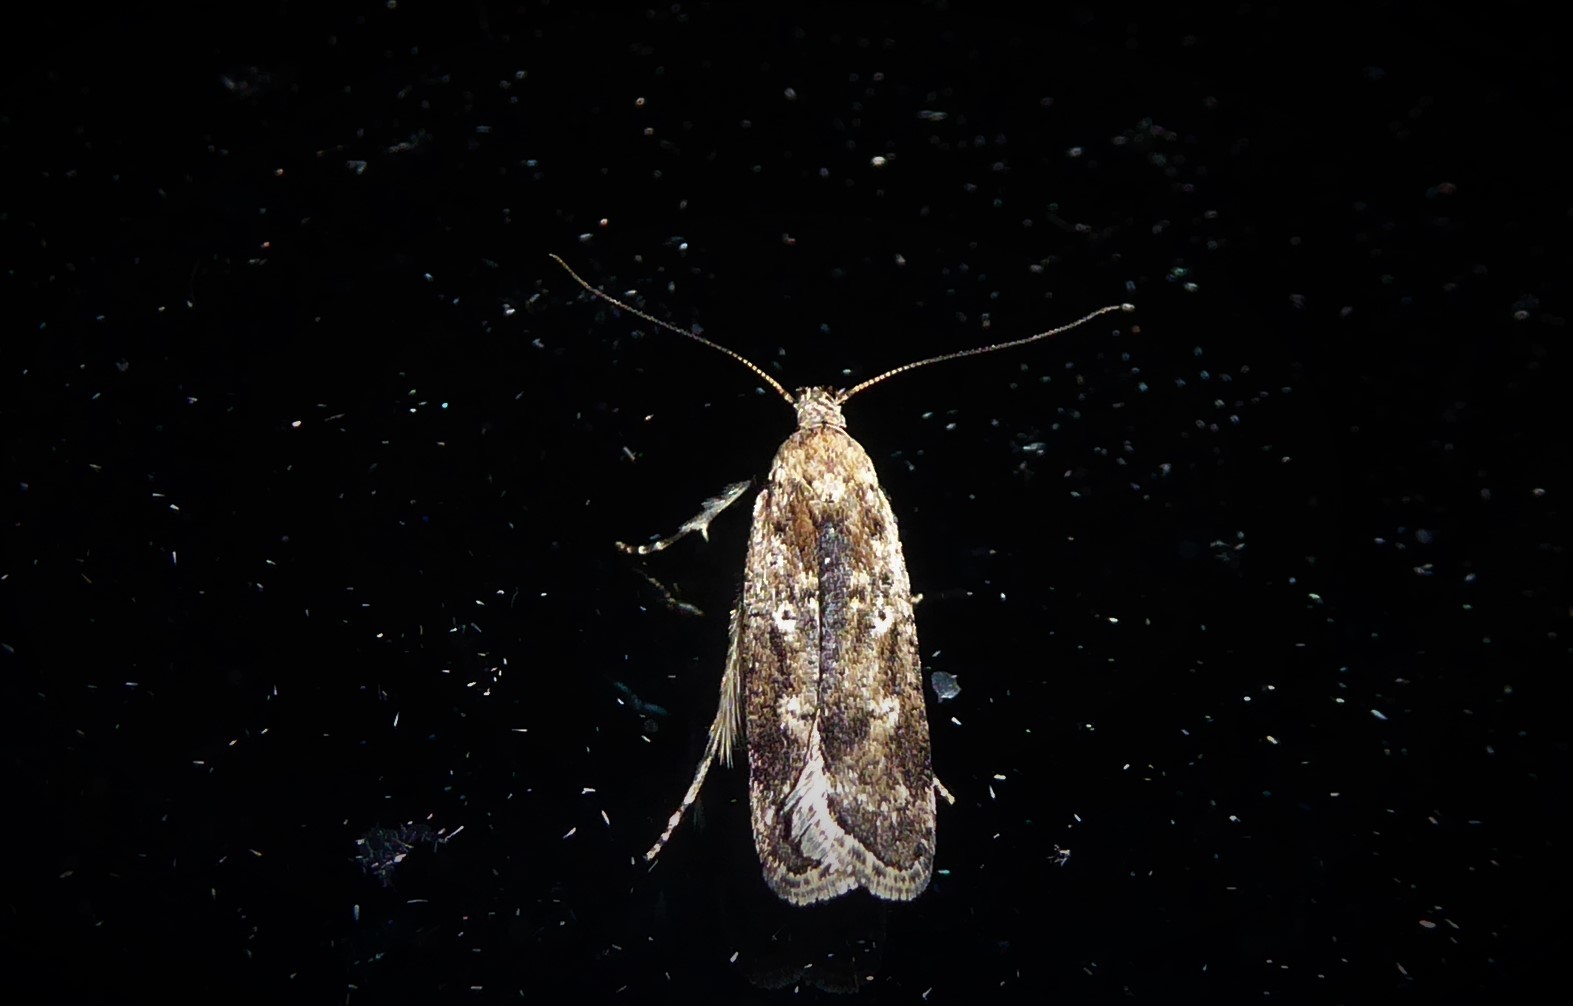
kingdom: Animalia
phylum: Arthropoda
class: Insecta
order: Lepidoptera
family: Gelechiidae
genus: Anisoplaca
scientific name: Anisoplaca achyrota
